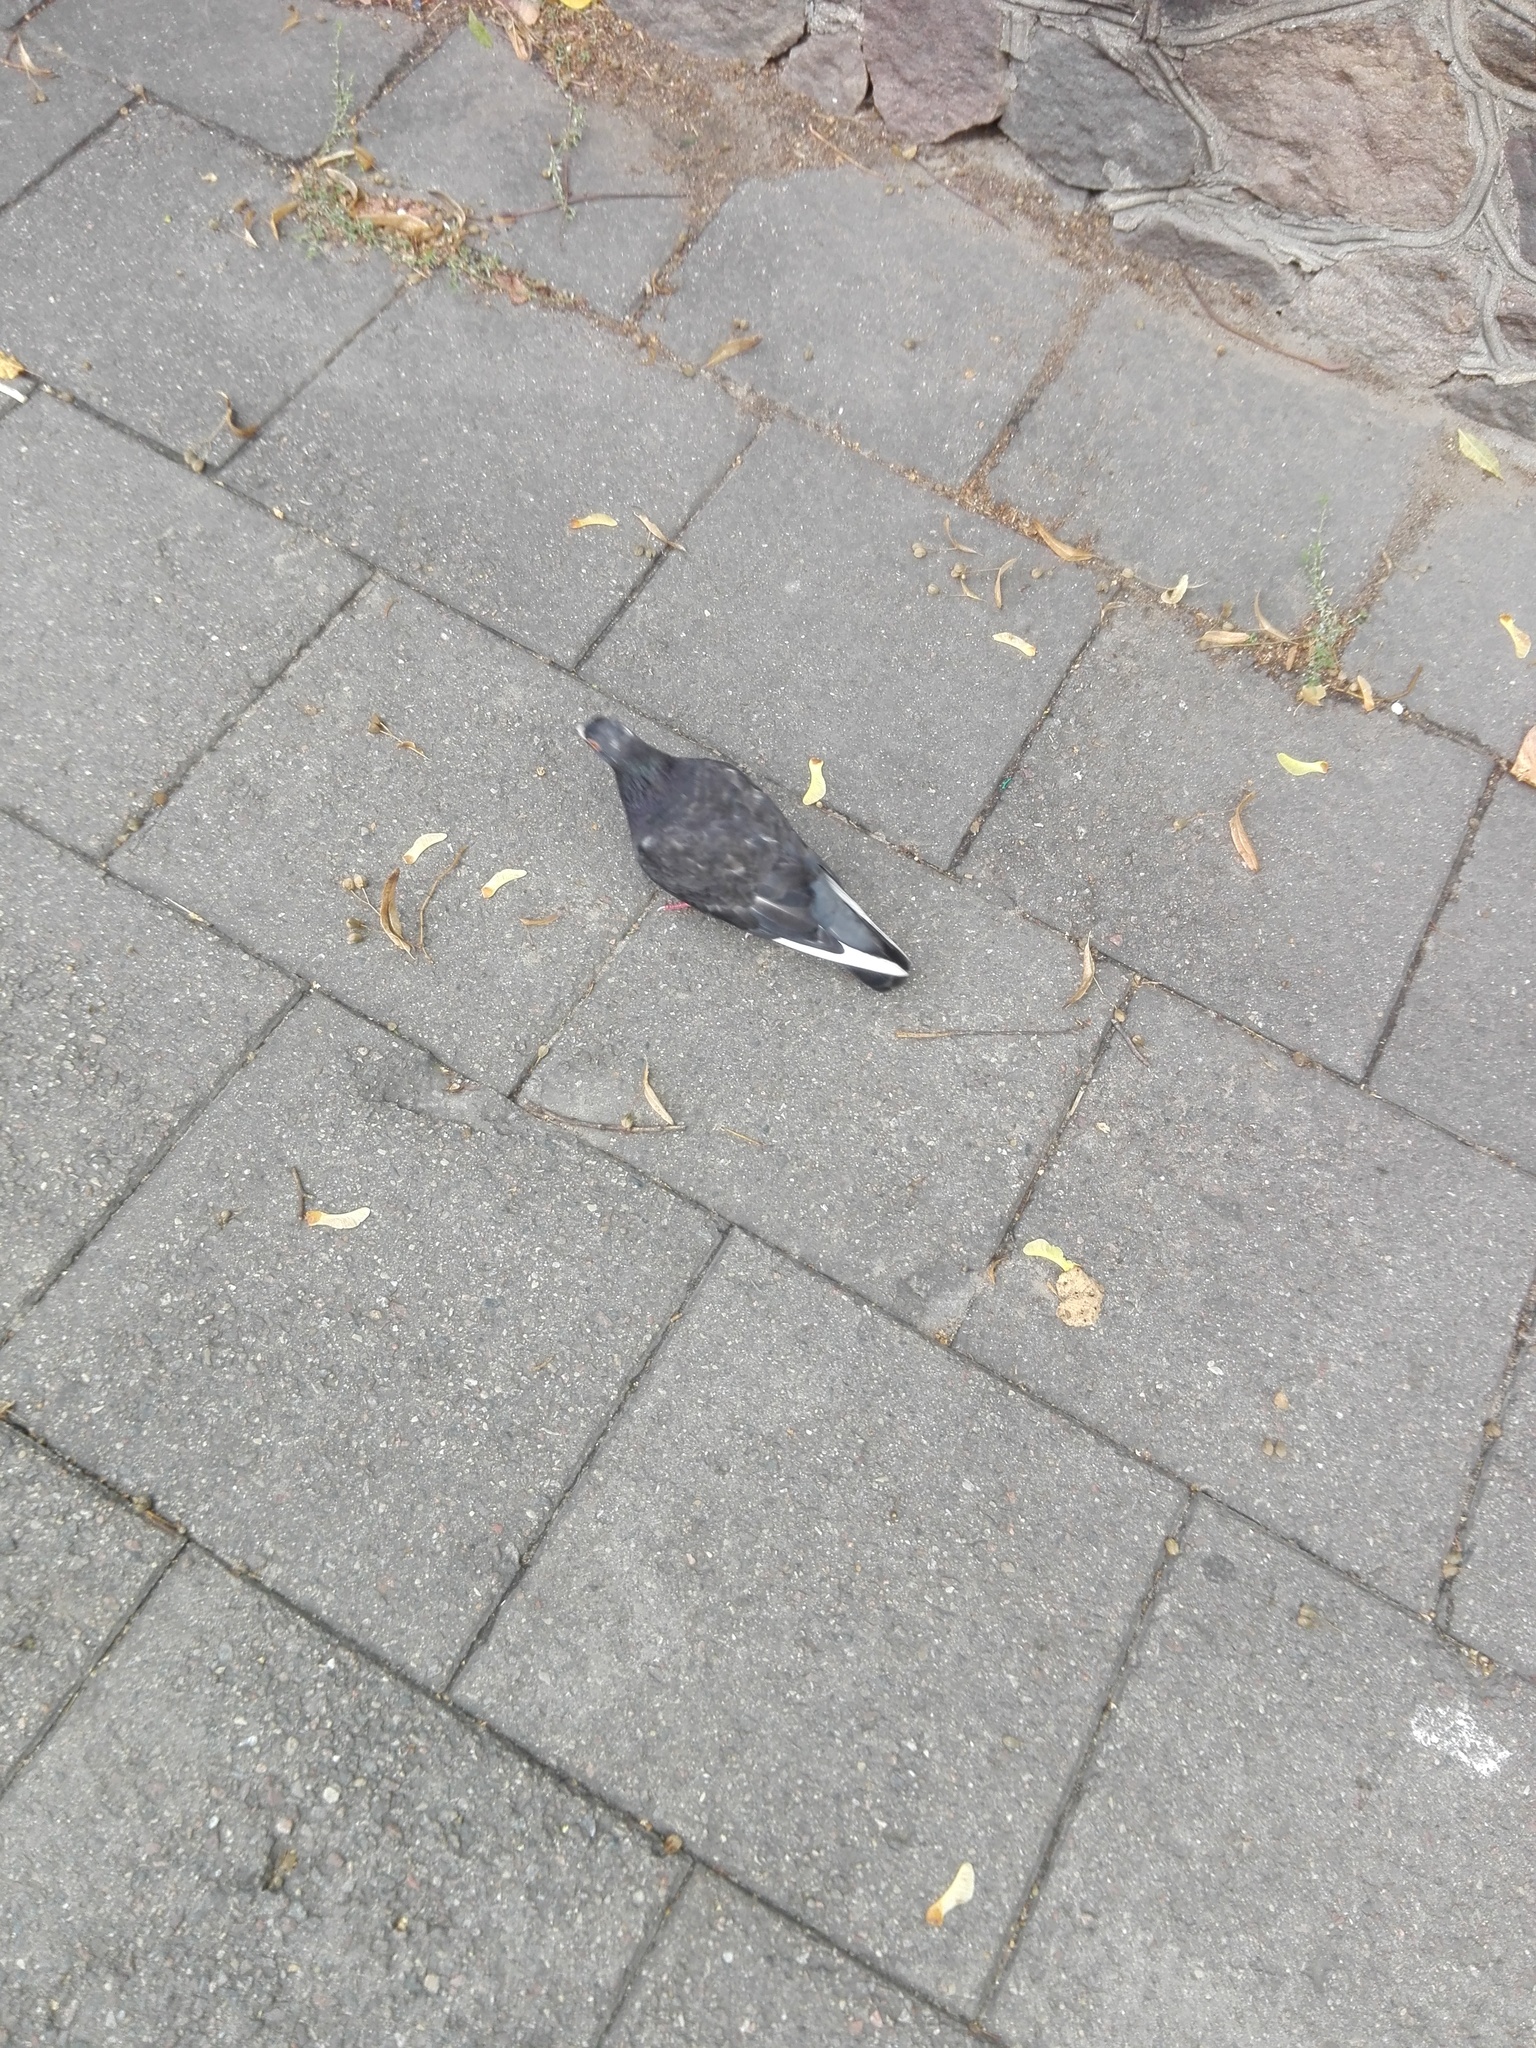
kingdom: Animalia
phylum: Chordata
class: Aves
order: Columbiformes
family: Columbidae
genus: Columba
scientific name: Columba livia
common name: Rock pigeon
